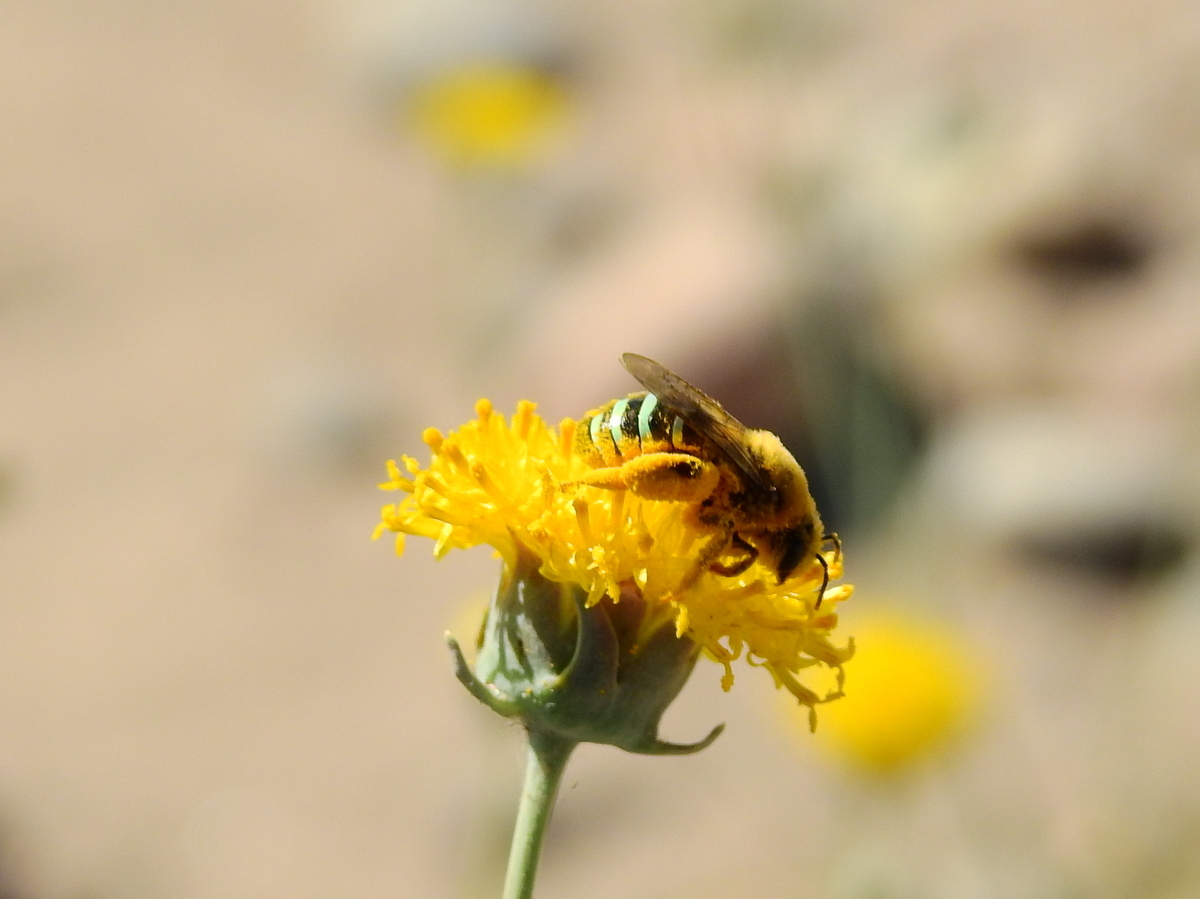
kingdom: Animalia
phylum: Arthropoda
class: Insecta
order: Hymenoptera
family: Colletidae
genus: Nomiocolletes
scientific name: Nomiocolletes
